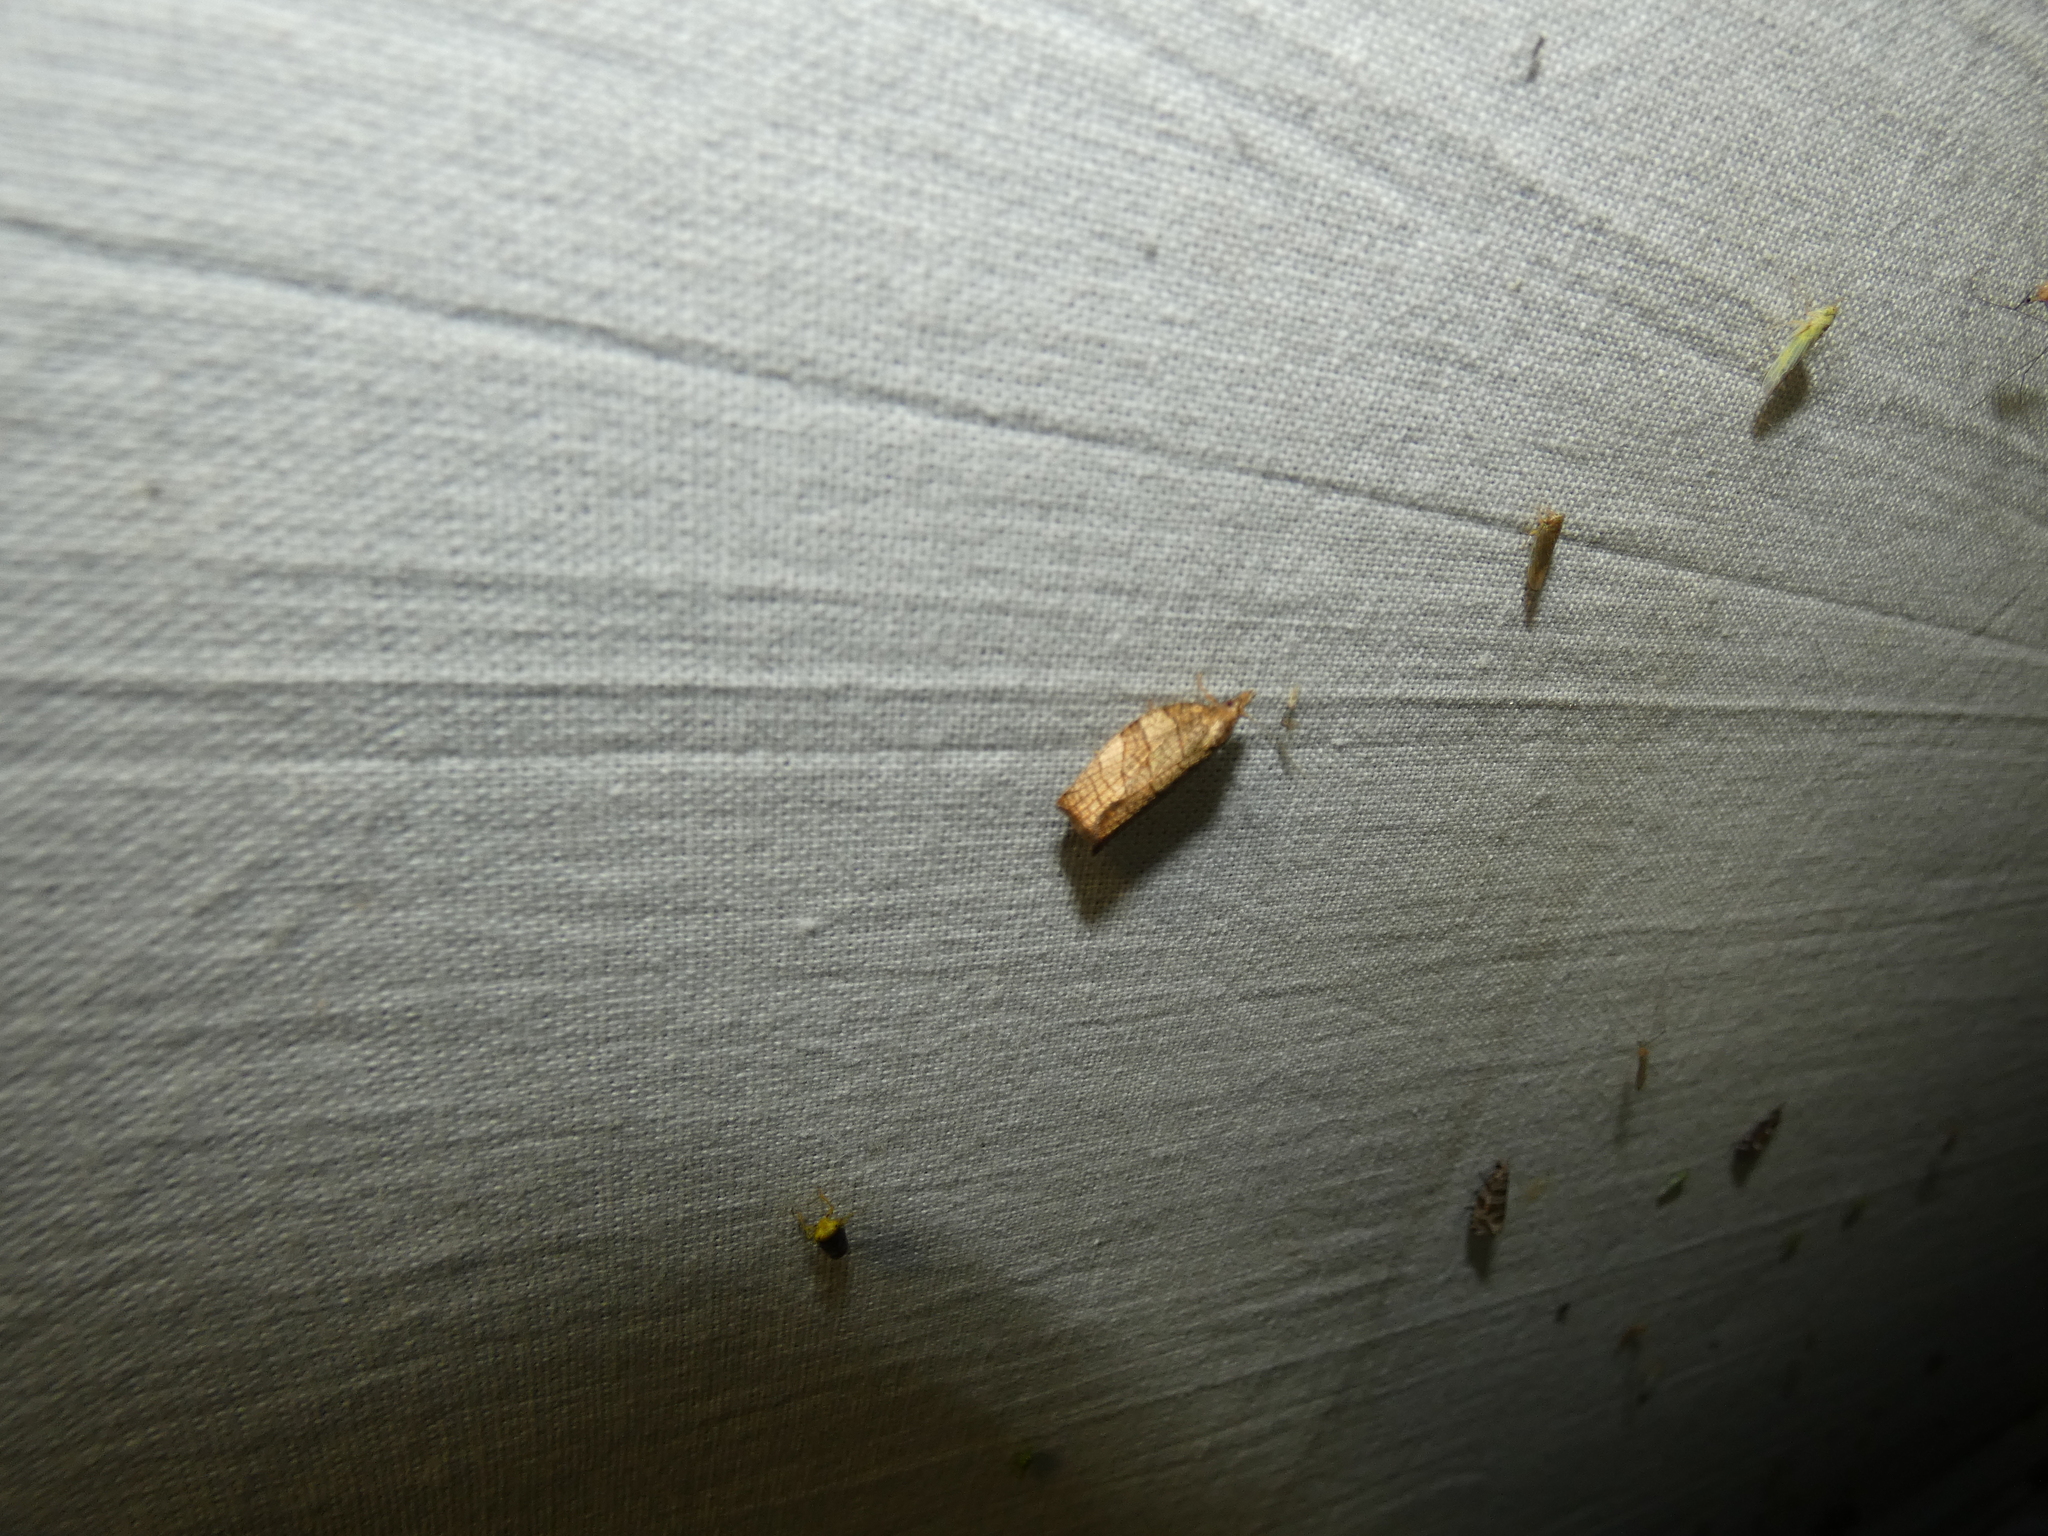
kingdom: Animalia
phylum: Arthropoda
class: Insecta
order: Lepidoptera
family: Tortricidae
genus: Pandemis
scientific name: Pandemis corylana
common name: Chequered fruit-tree tortrix
